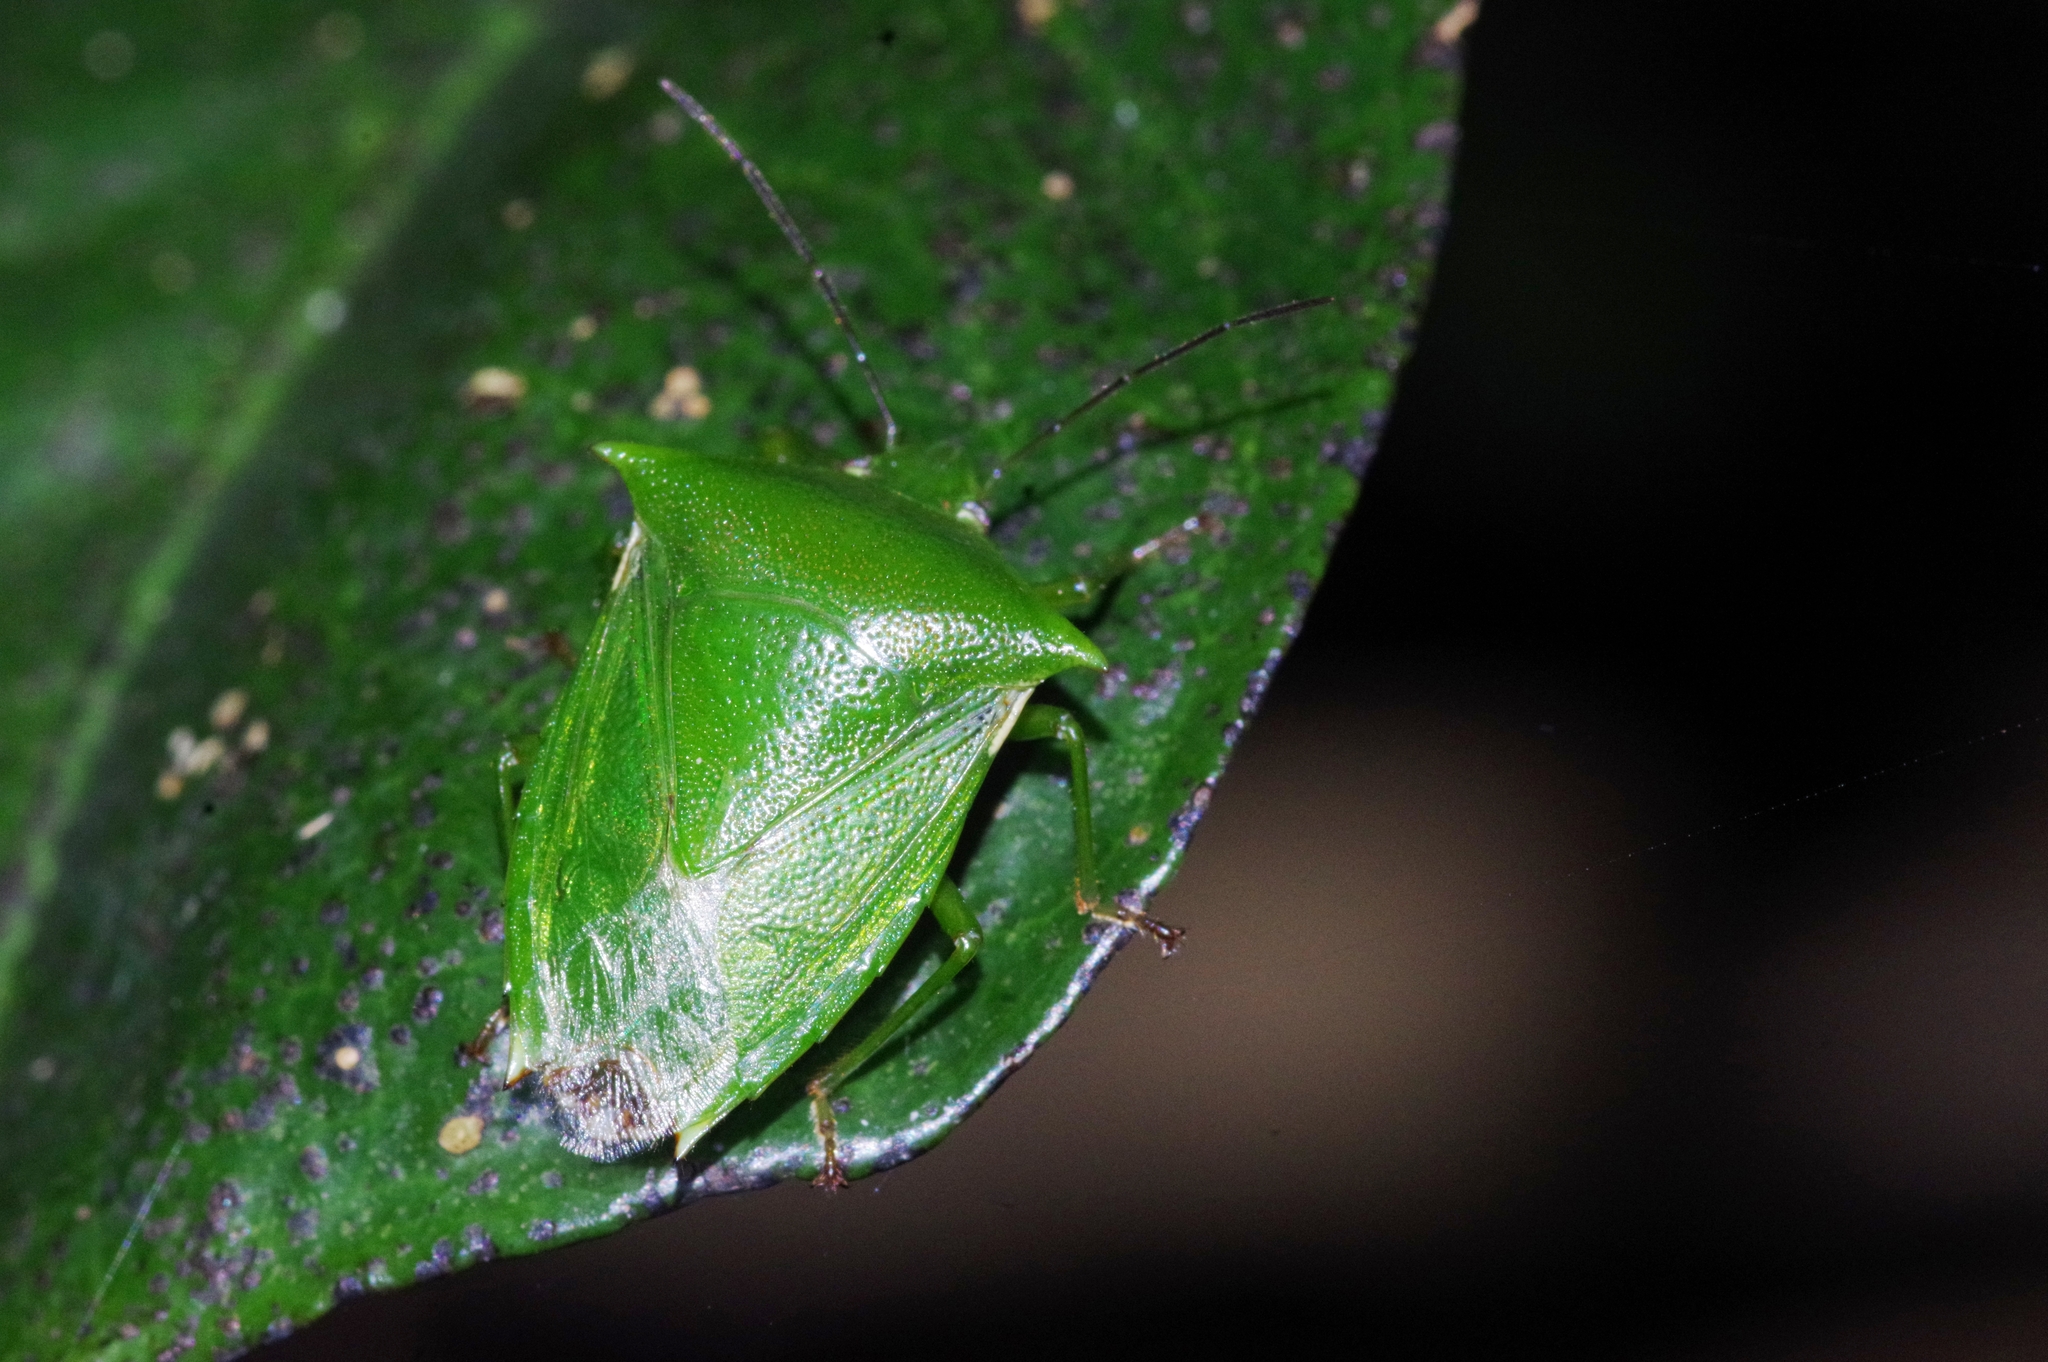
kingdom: Animalia
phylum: Arthropoda
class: Insecta
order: Hemiptera
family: Pentatomidae
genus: Vitellus
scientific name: Vitellus
